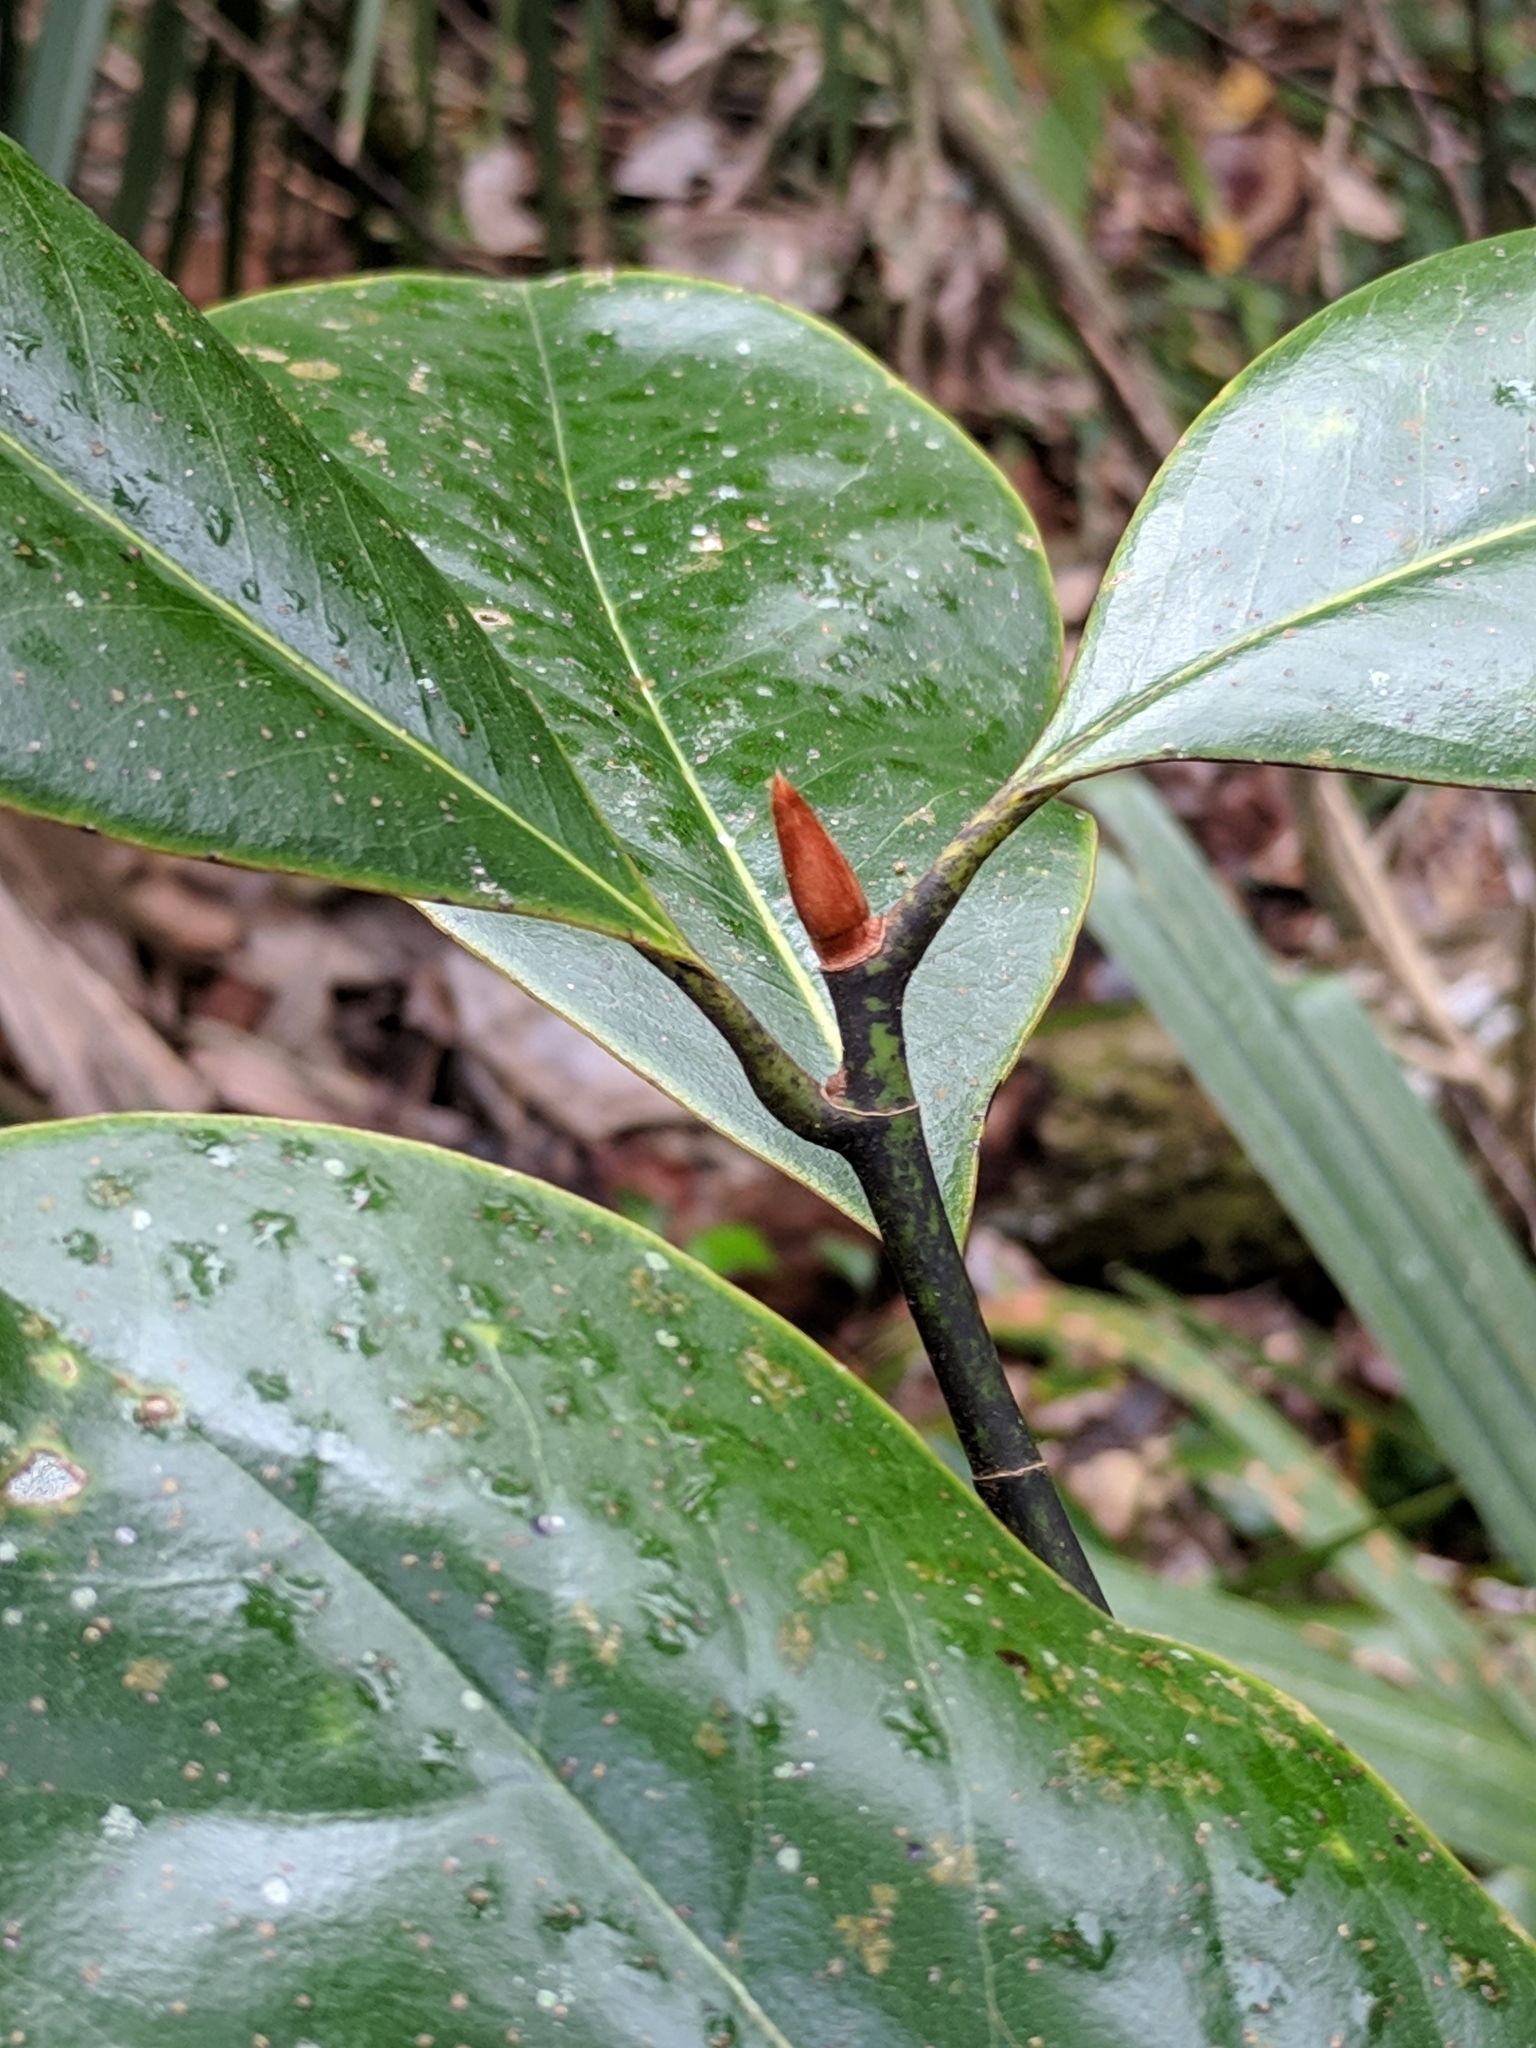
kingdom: Plantae
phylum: Tracheophyta
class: Magnoliopsida
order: Magnoliales
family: Magnoliaceae
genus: Magnolia
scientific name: Magnolia grandiflora
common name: Southern magnolia
